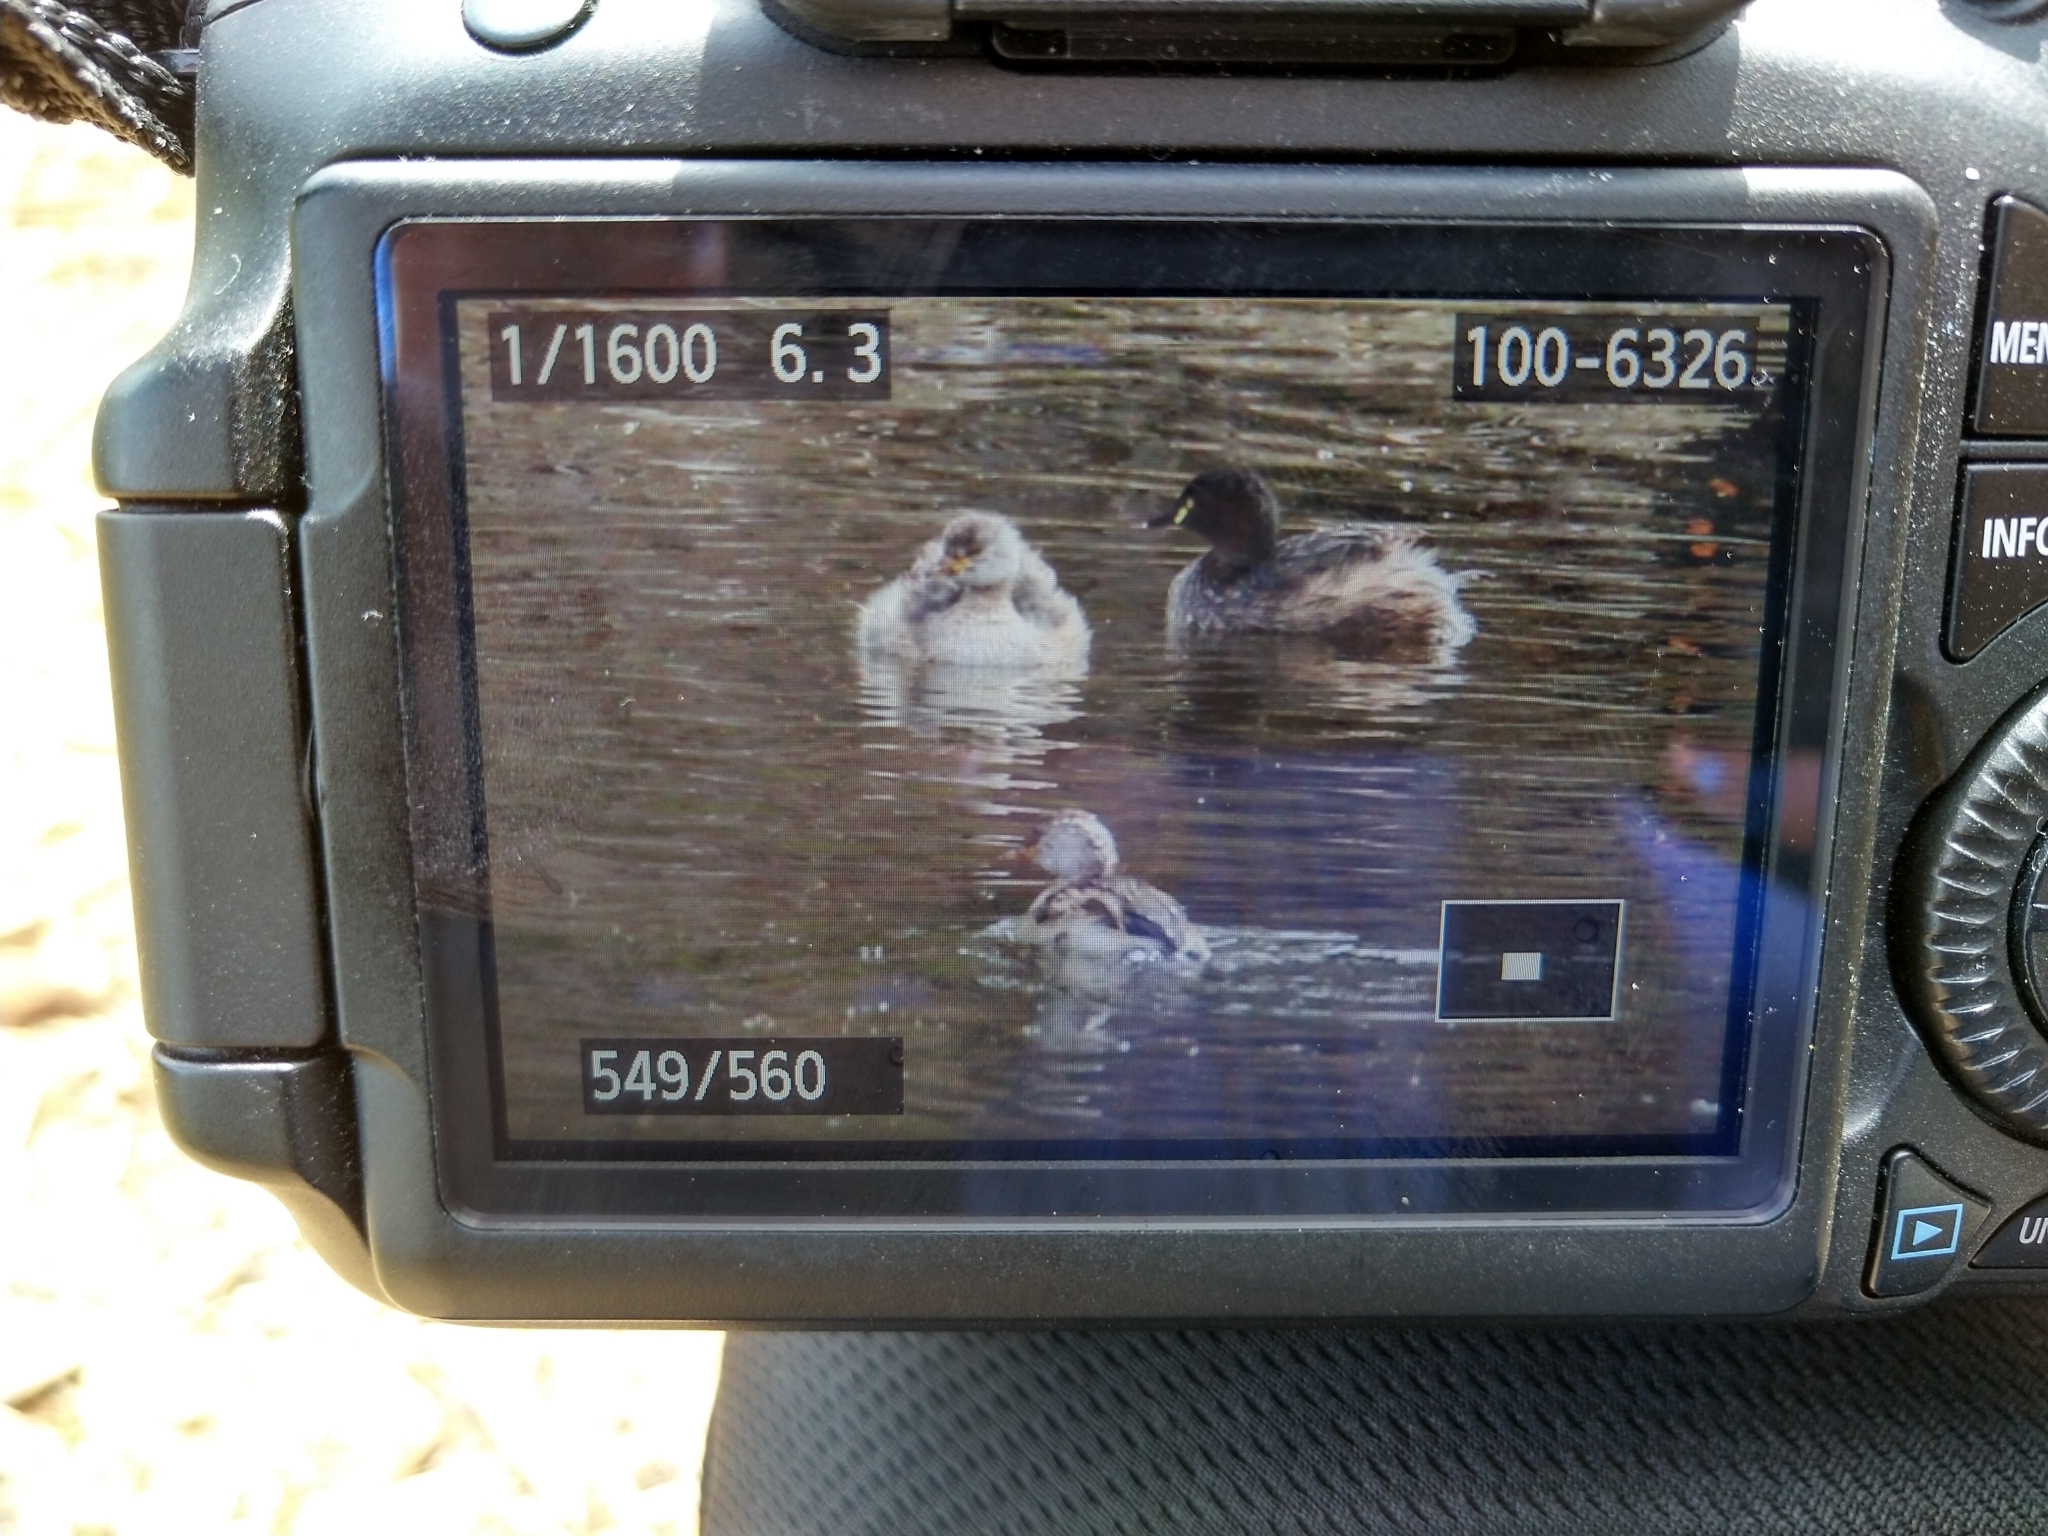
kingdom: Animalia
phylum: Chordata
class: Aves
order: Podicipediformes
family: Podicipedidae
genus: Tachybaptus
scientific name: Tachybaptus novaehollandiae
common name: Australasian grebe
